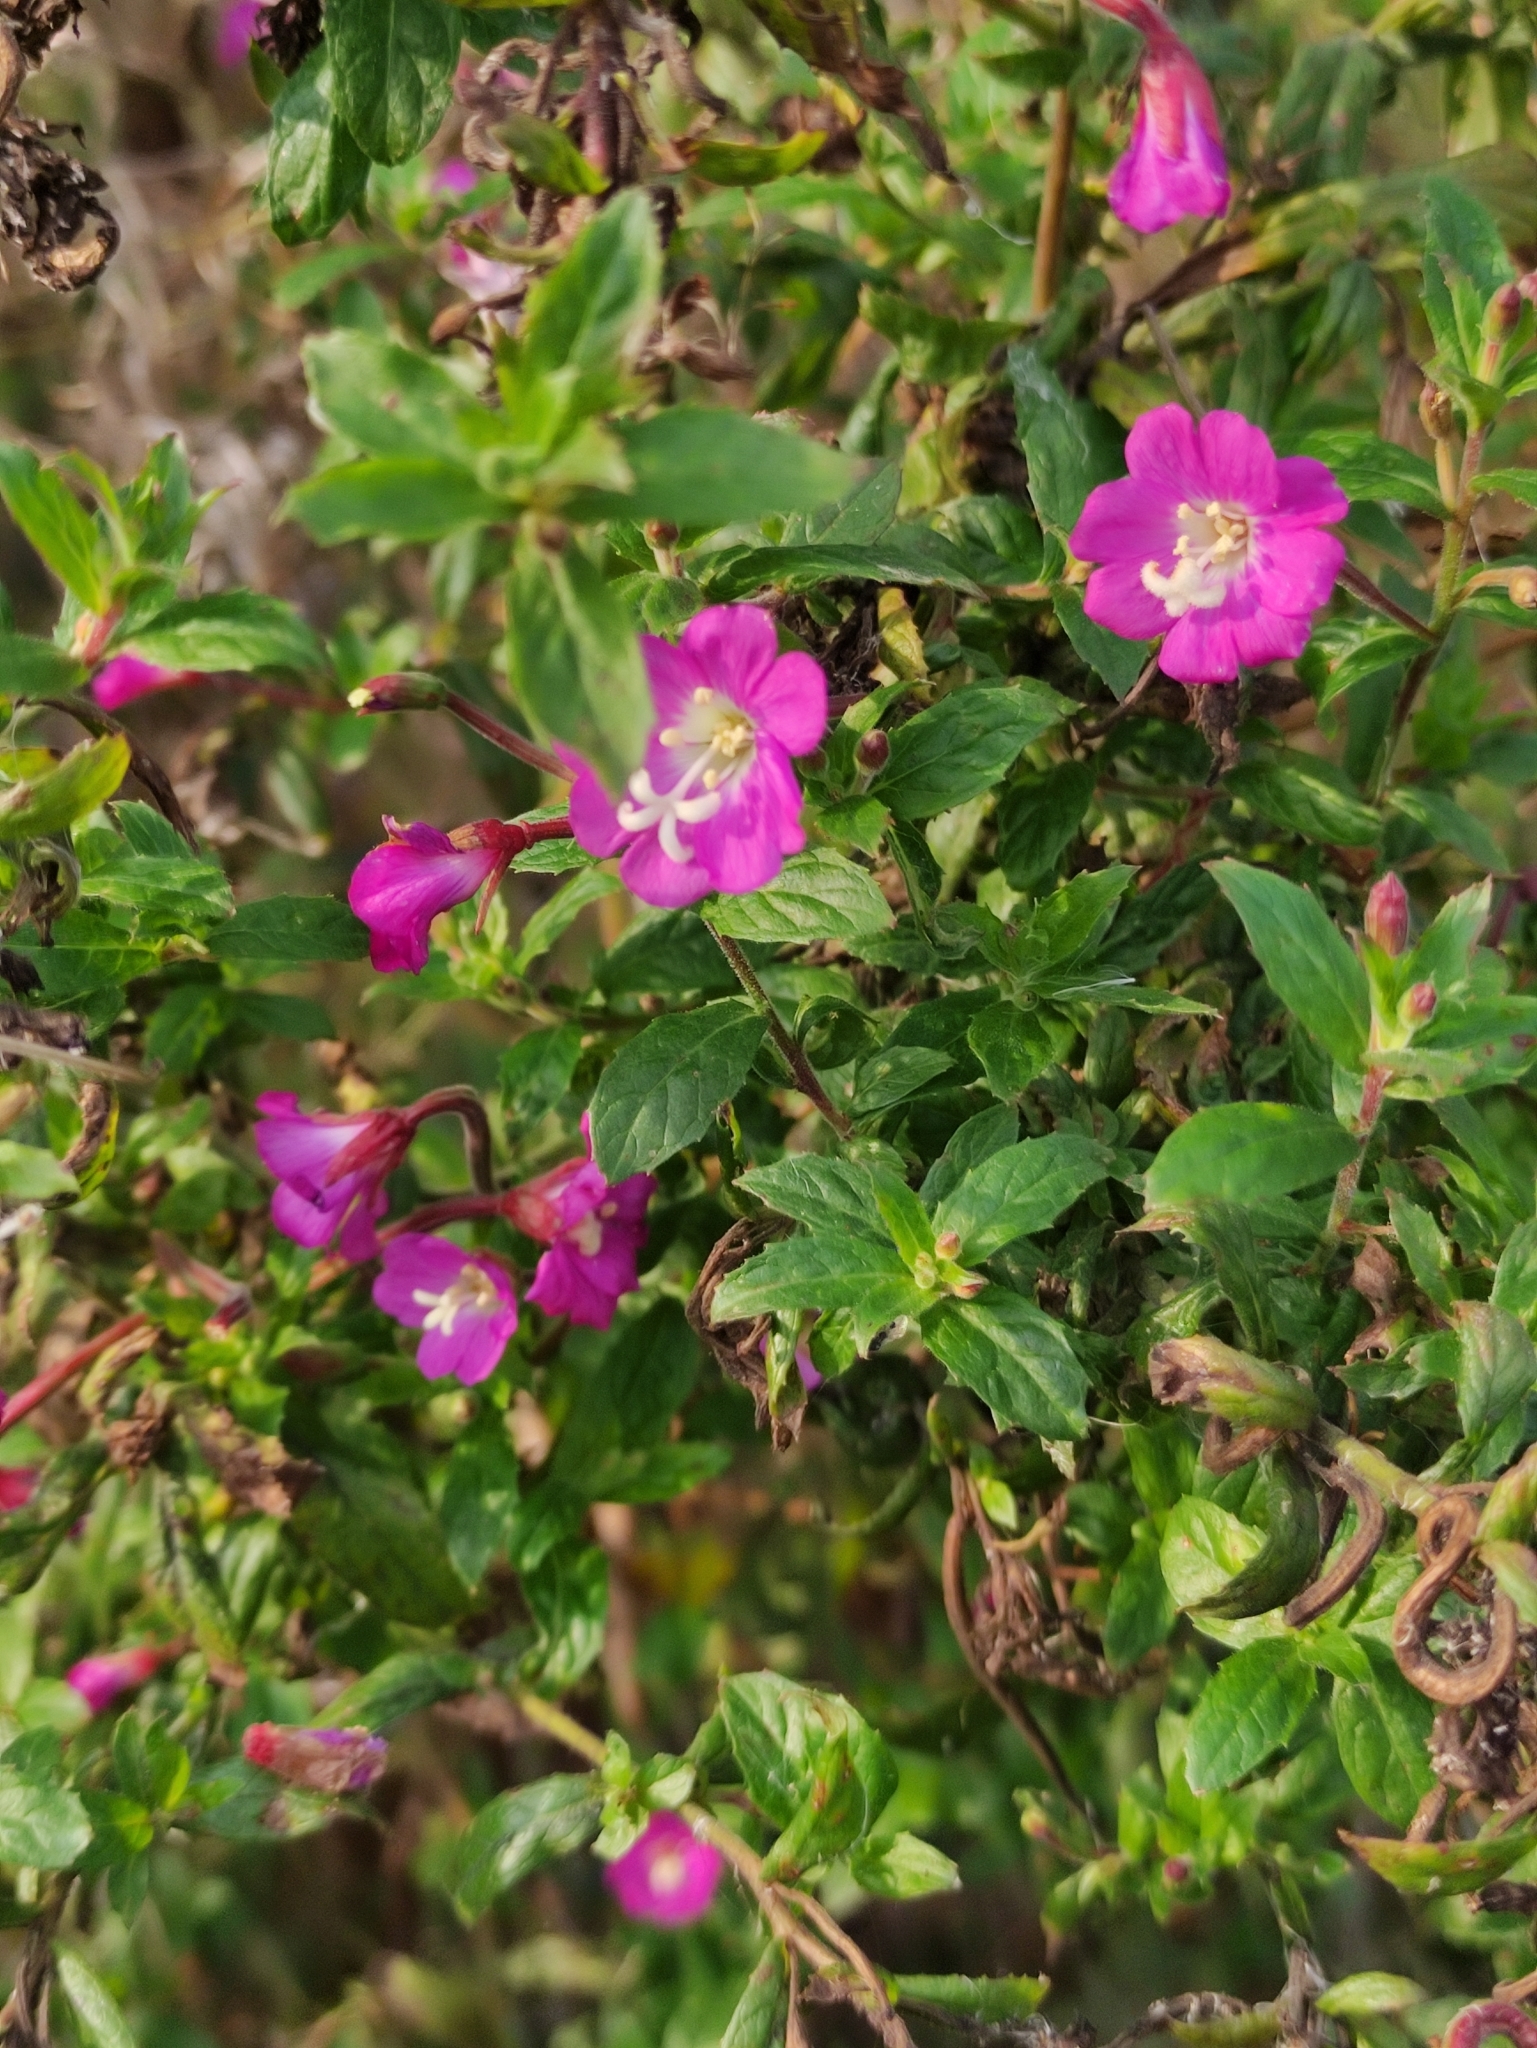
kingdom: Plantae
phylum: Tracheophyta
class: Magnoliopsida
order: Myrtales
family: Onagraceae
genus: Epilobium
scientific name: Epilobium hirsutum
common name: Great willowherb
